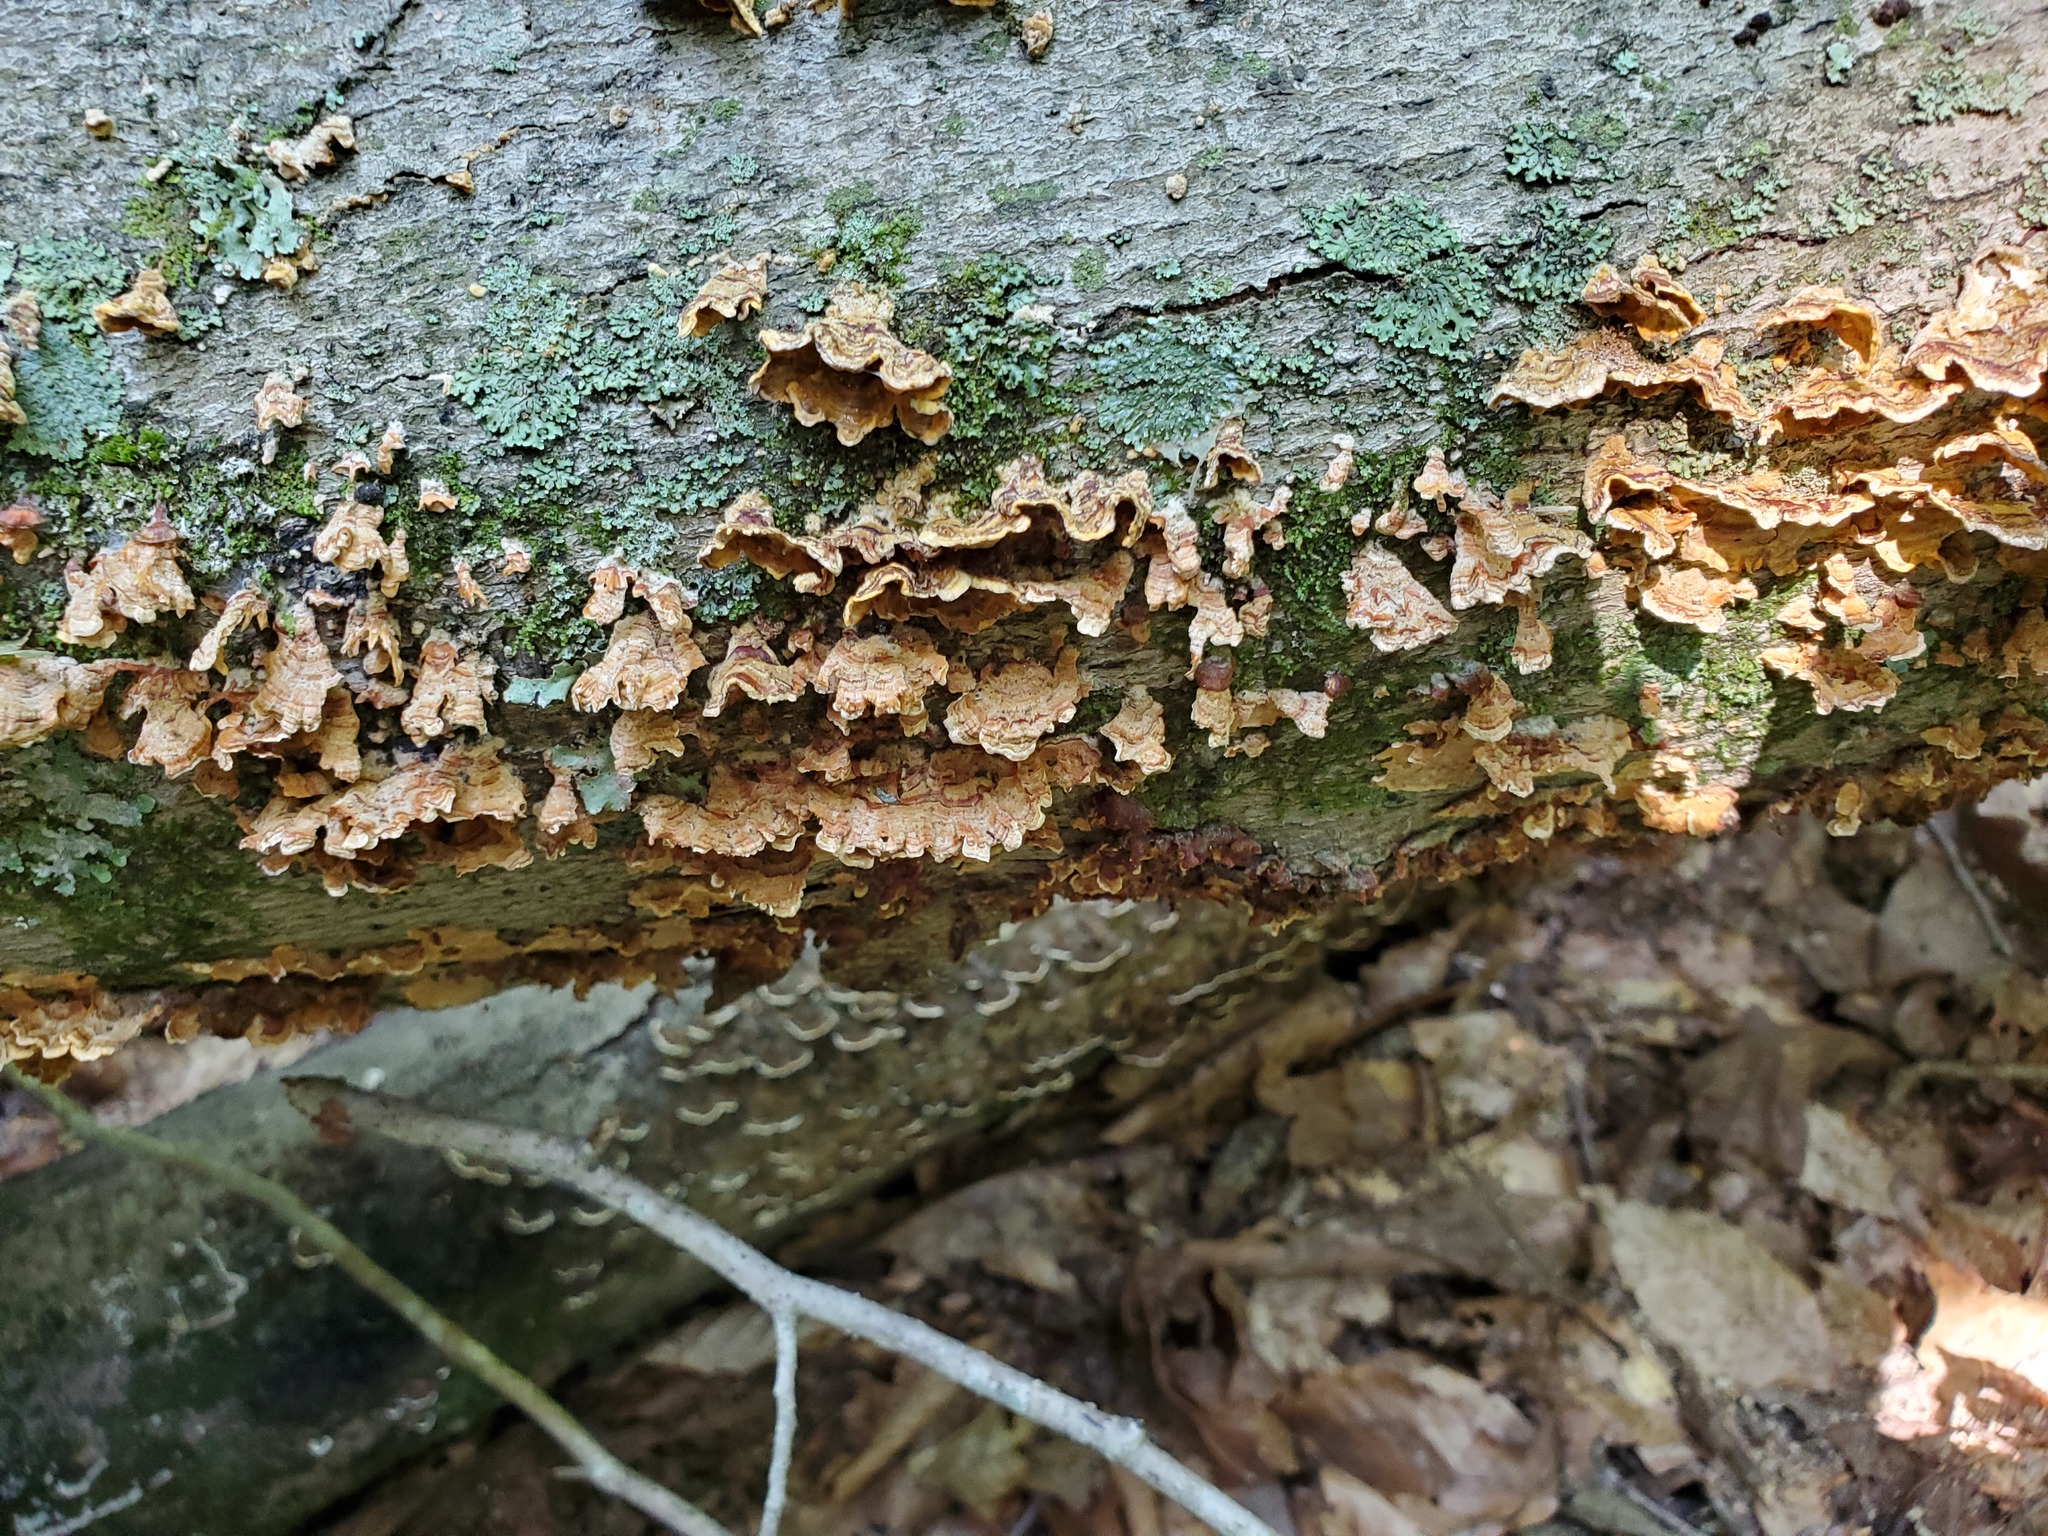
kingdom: Fungi
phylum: Basidiomycota
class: Agaricomycetes
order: Russulales
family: Stereaceae
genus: Stereum
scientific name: Stereum complicatum
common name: Crowded parchment
